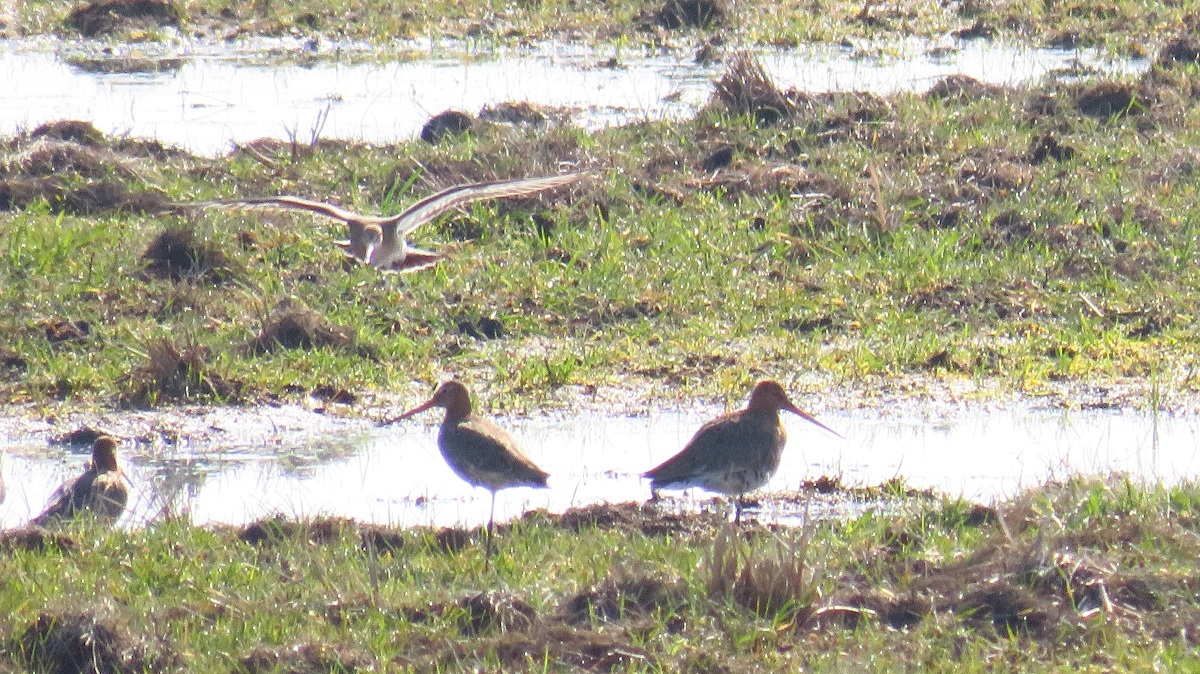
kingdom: Animalia
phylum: Chordata
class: Aves
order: Charadriiformes
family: Scolopacidae
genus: Limosa
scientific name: Limosa limosa
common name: Black-tailed godwit
